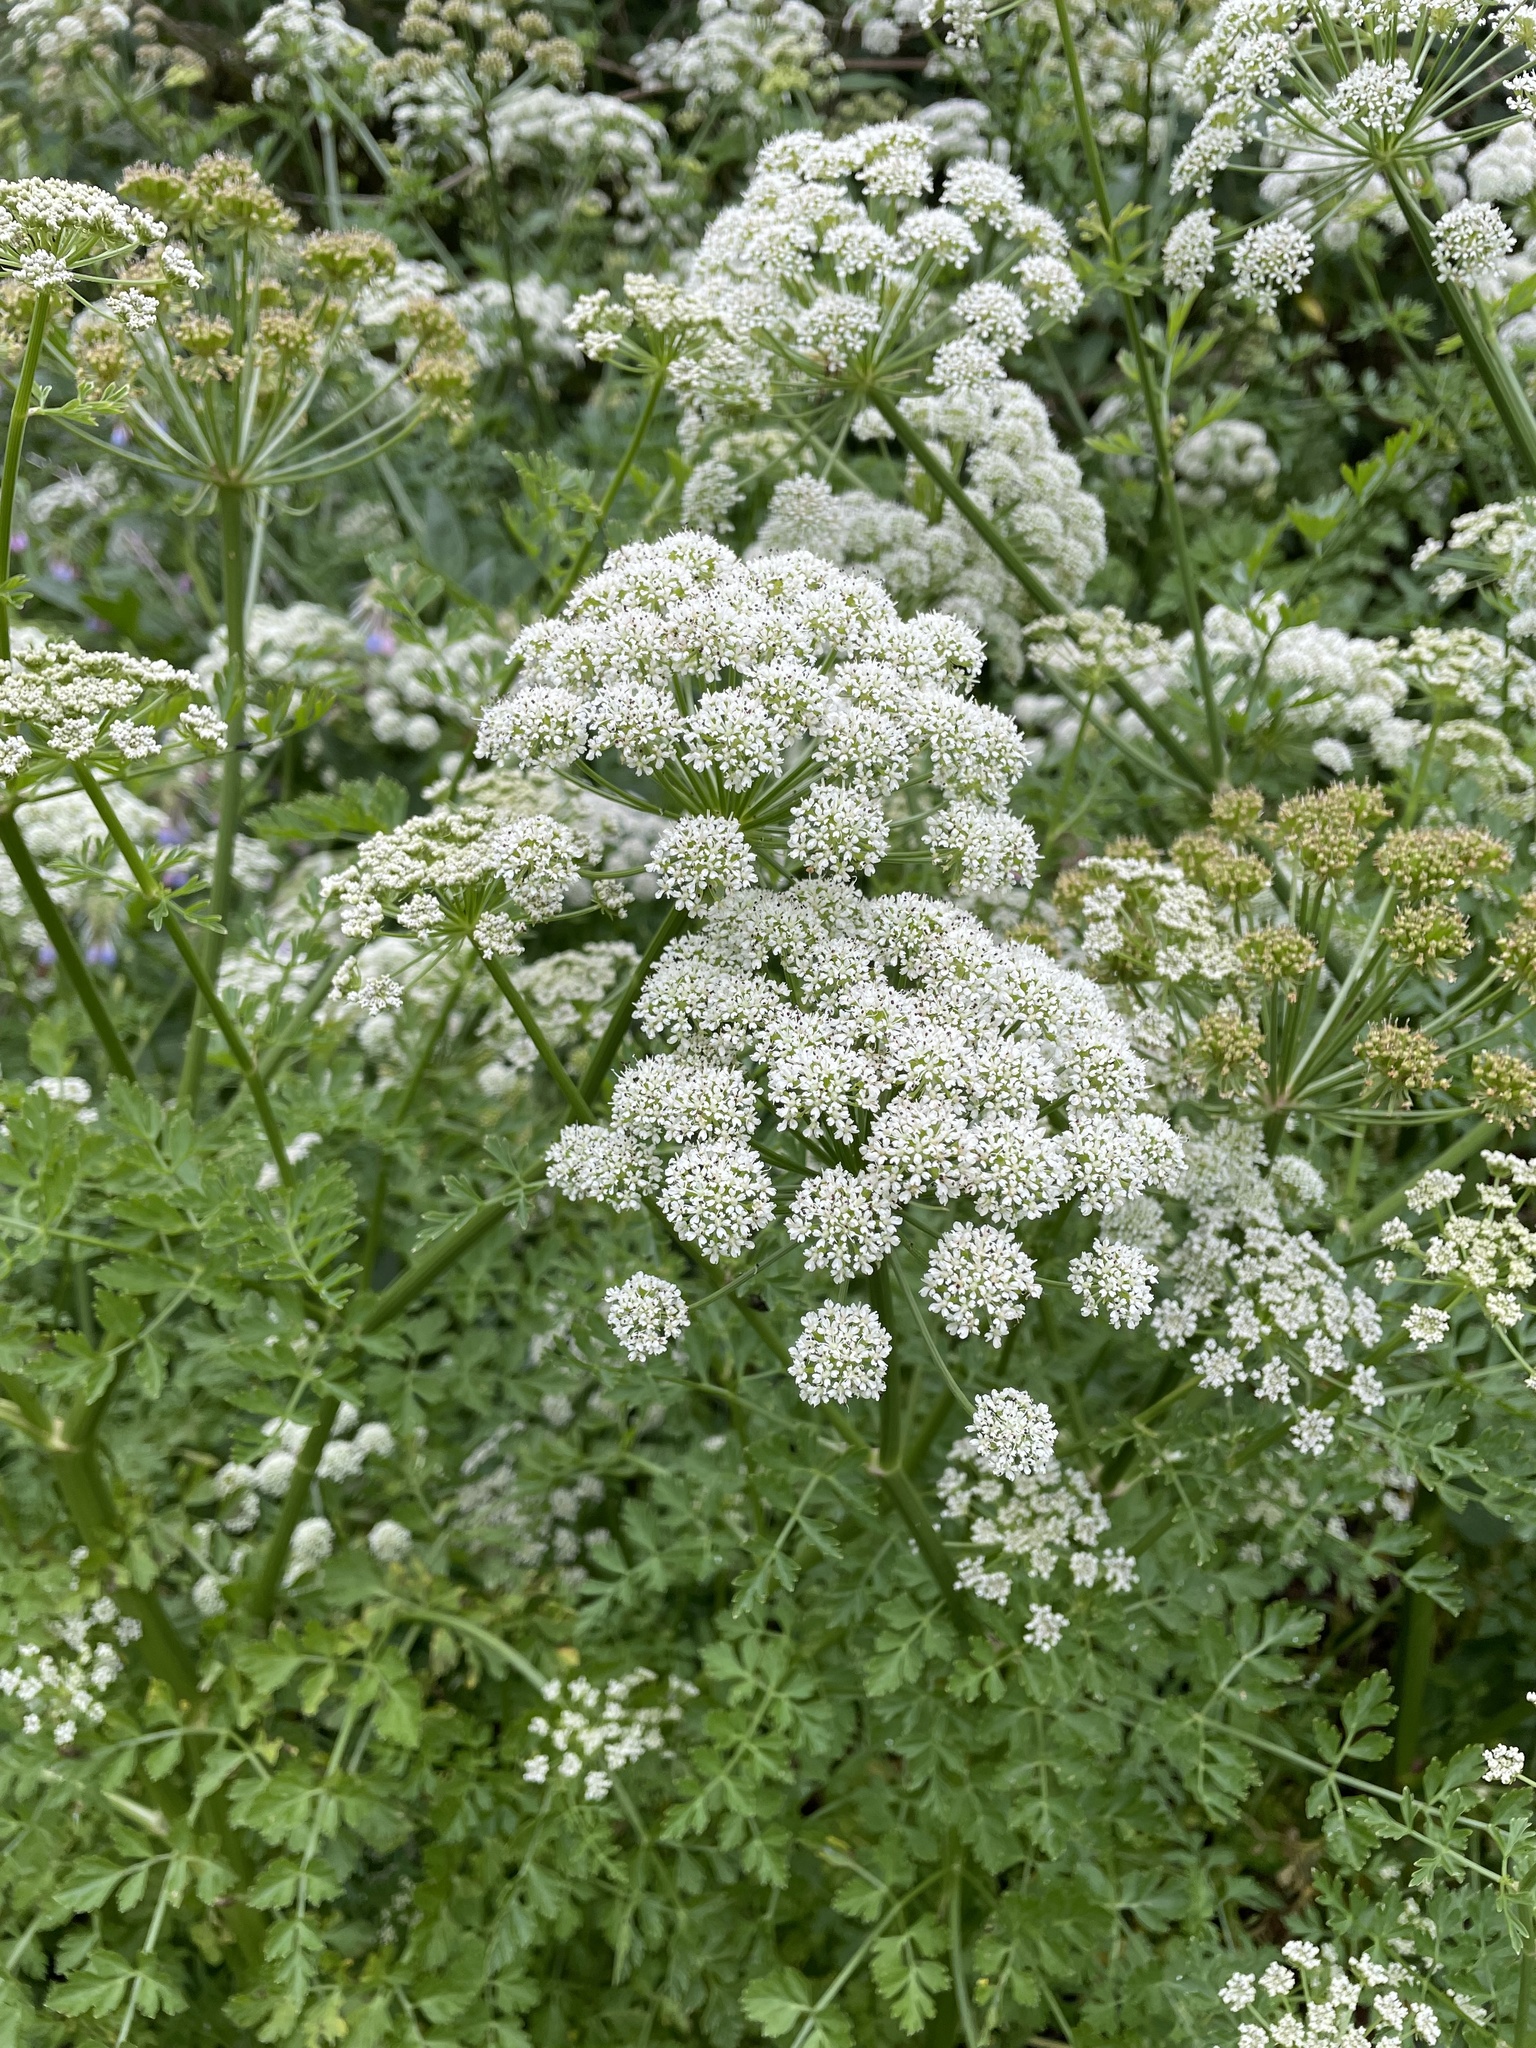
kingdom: Plantae
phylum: Tracheophyta
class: Magnoliopsida
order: Apiales
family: Apiaceae
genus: Oenanthe
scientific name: Oenanthe crocata
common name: Hemlock water-dropwort
